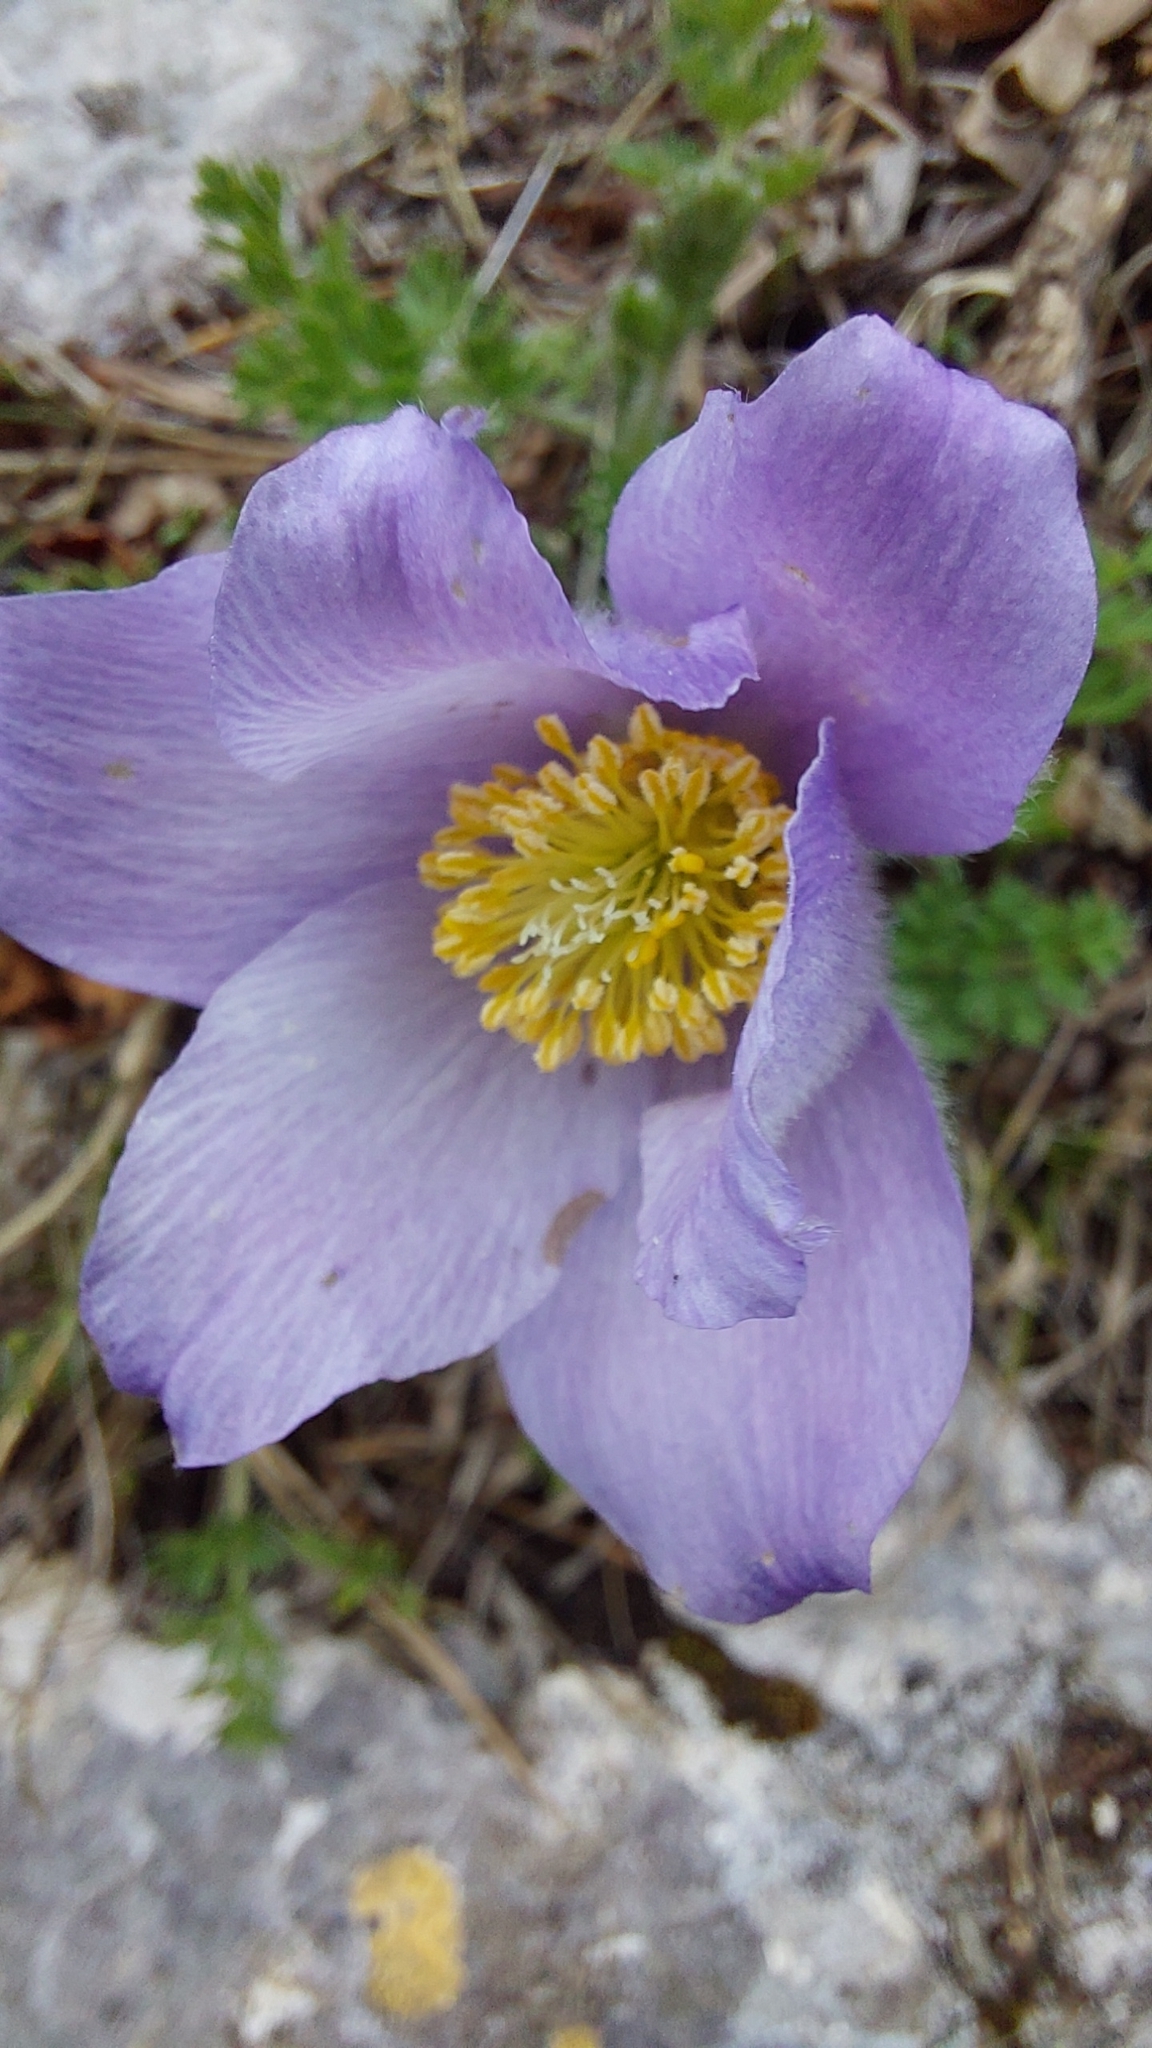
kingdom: Plantae
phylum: Tracheophyta
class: Magnoliopsida
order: Ranunculales
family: Ranunculaceae
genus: Pulsatilla
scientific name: Pulsatilla violacea
